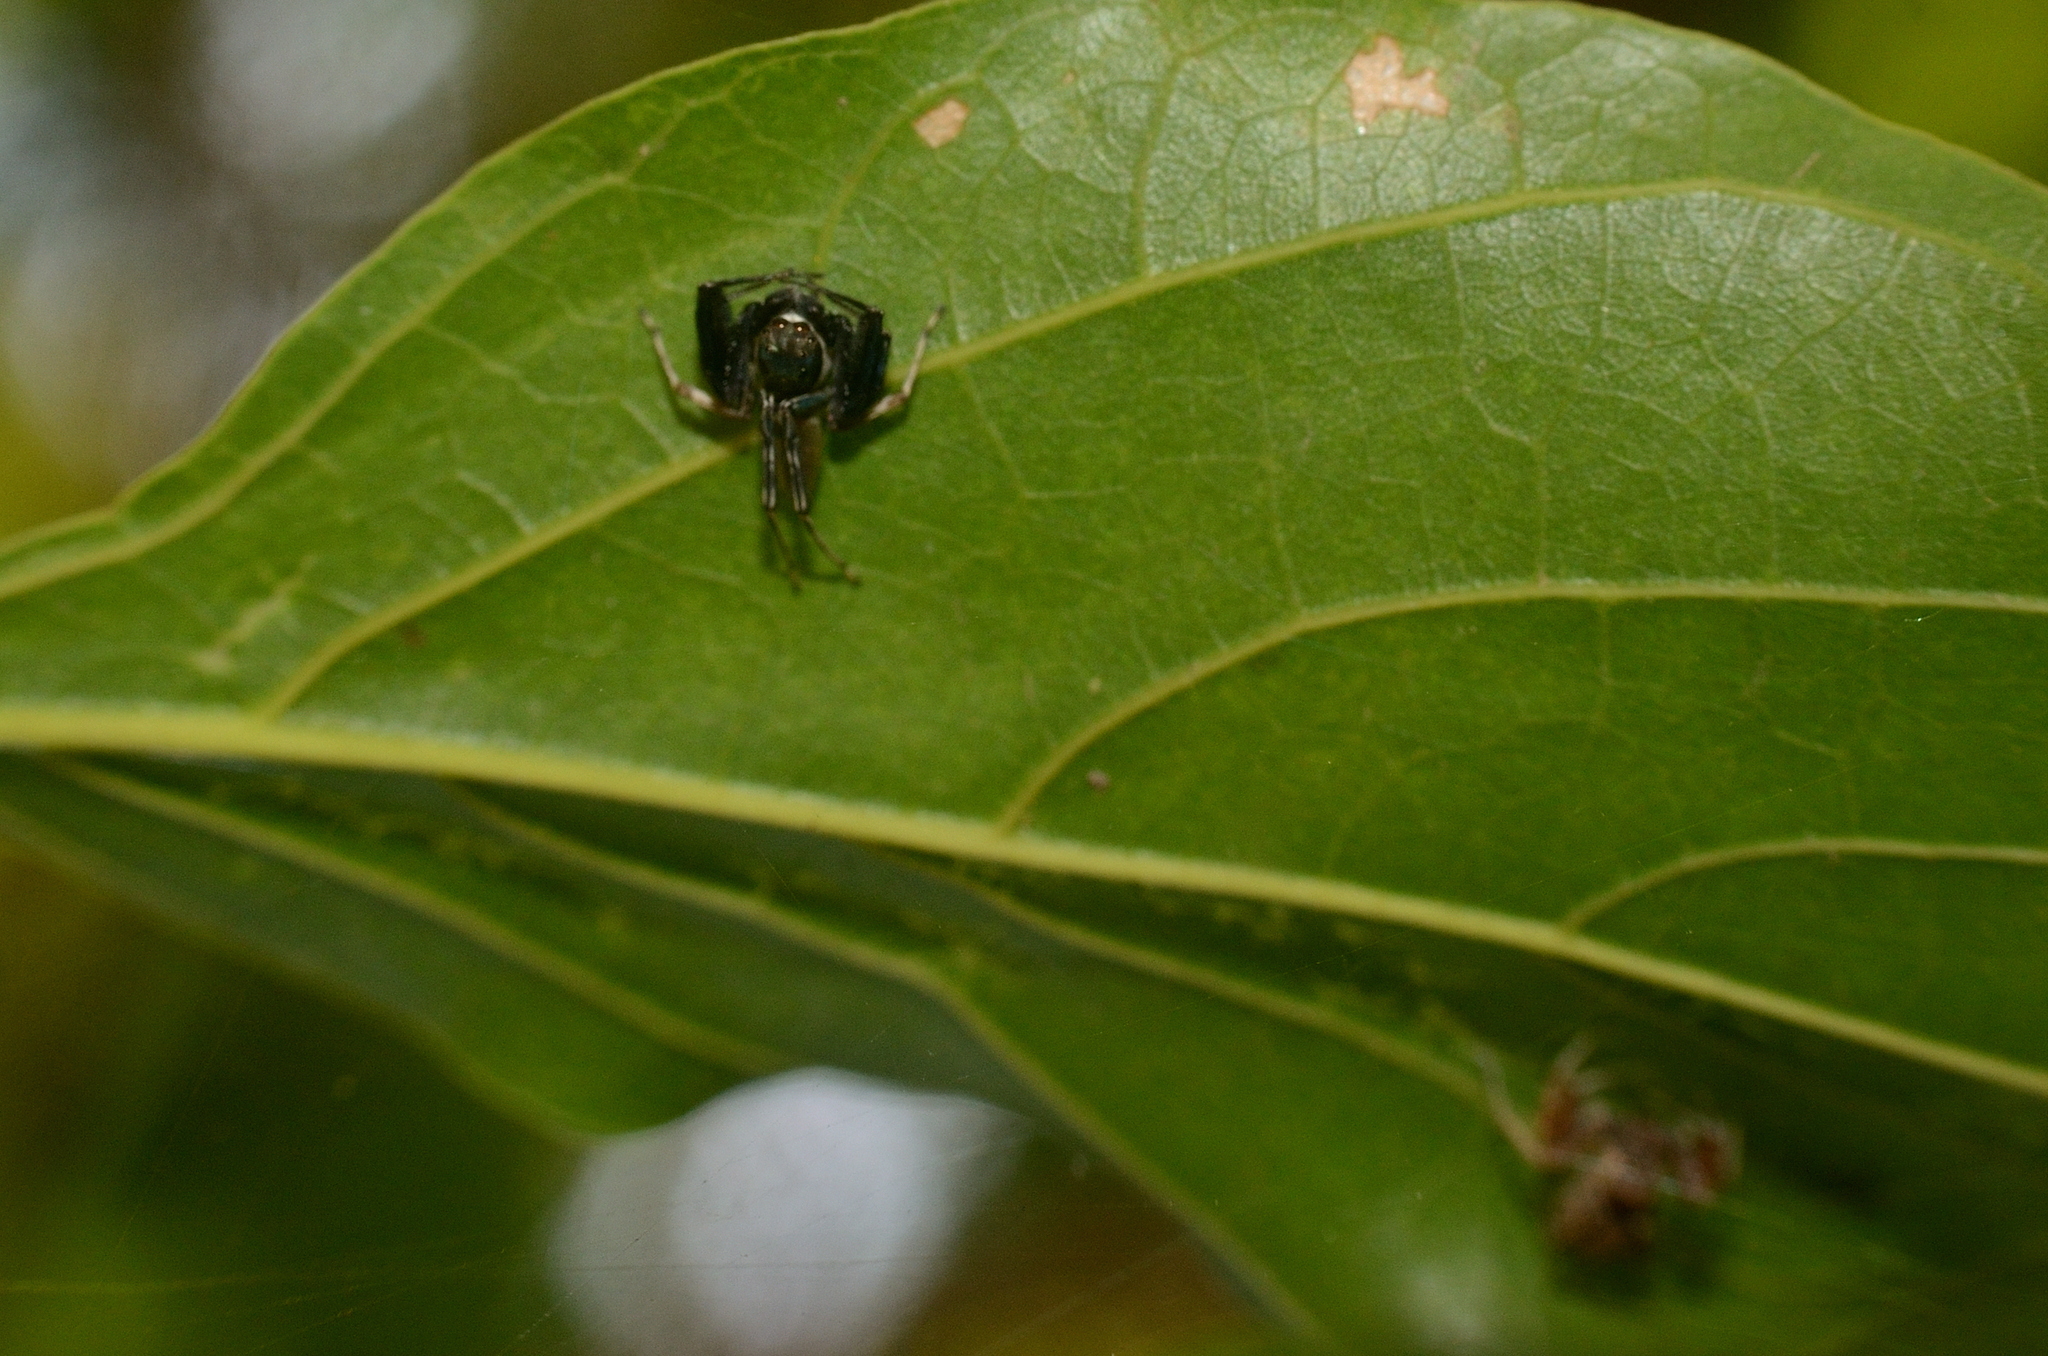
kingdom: Animalia
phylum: Arthropoda
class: Arachnida
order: Araneae
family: Salticidae
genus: Brettus
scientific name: Brettus cingulatus
